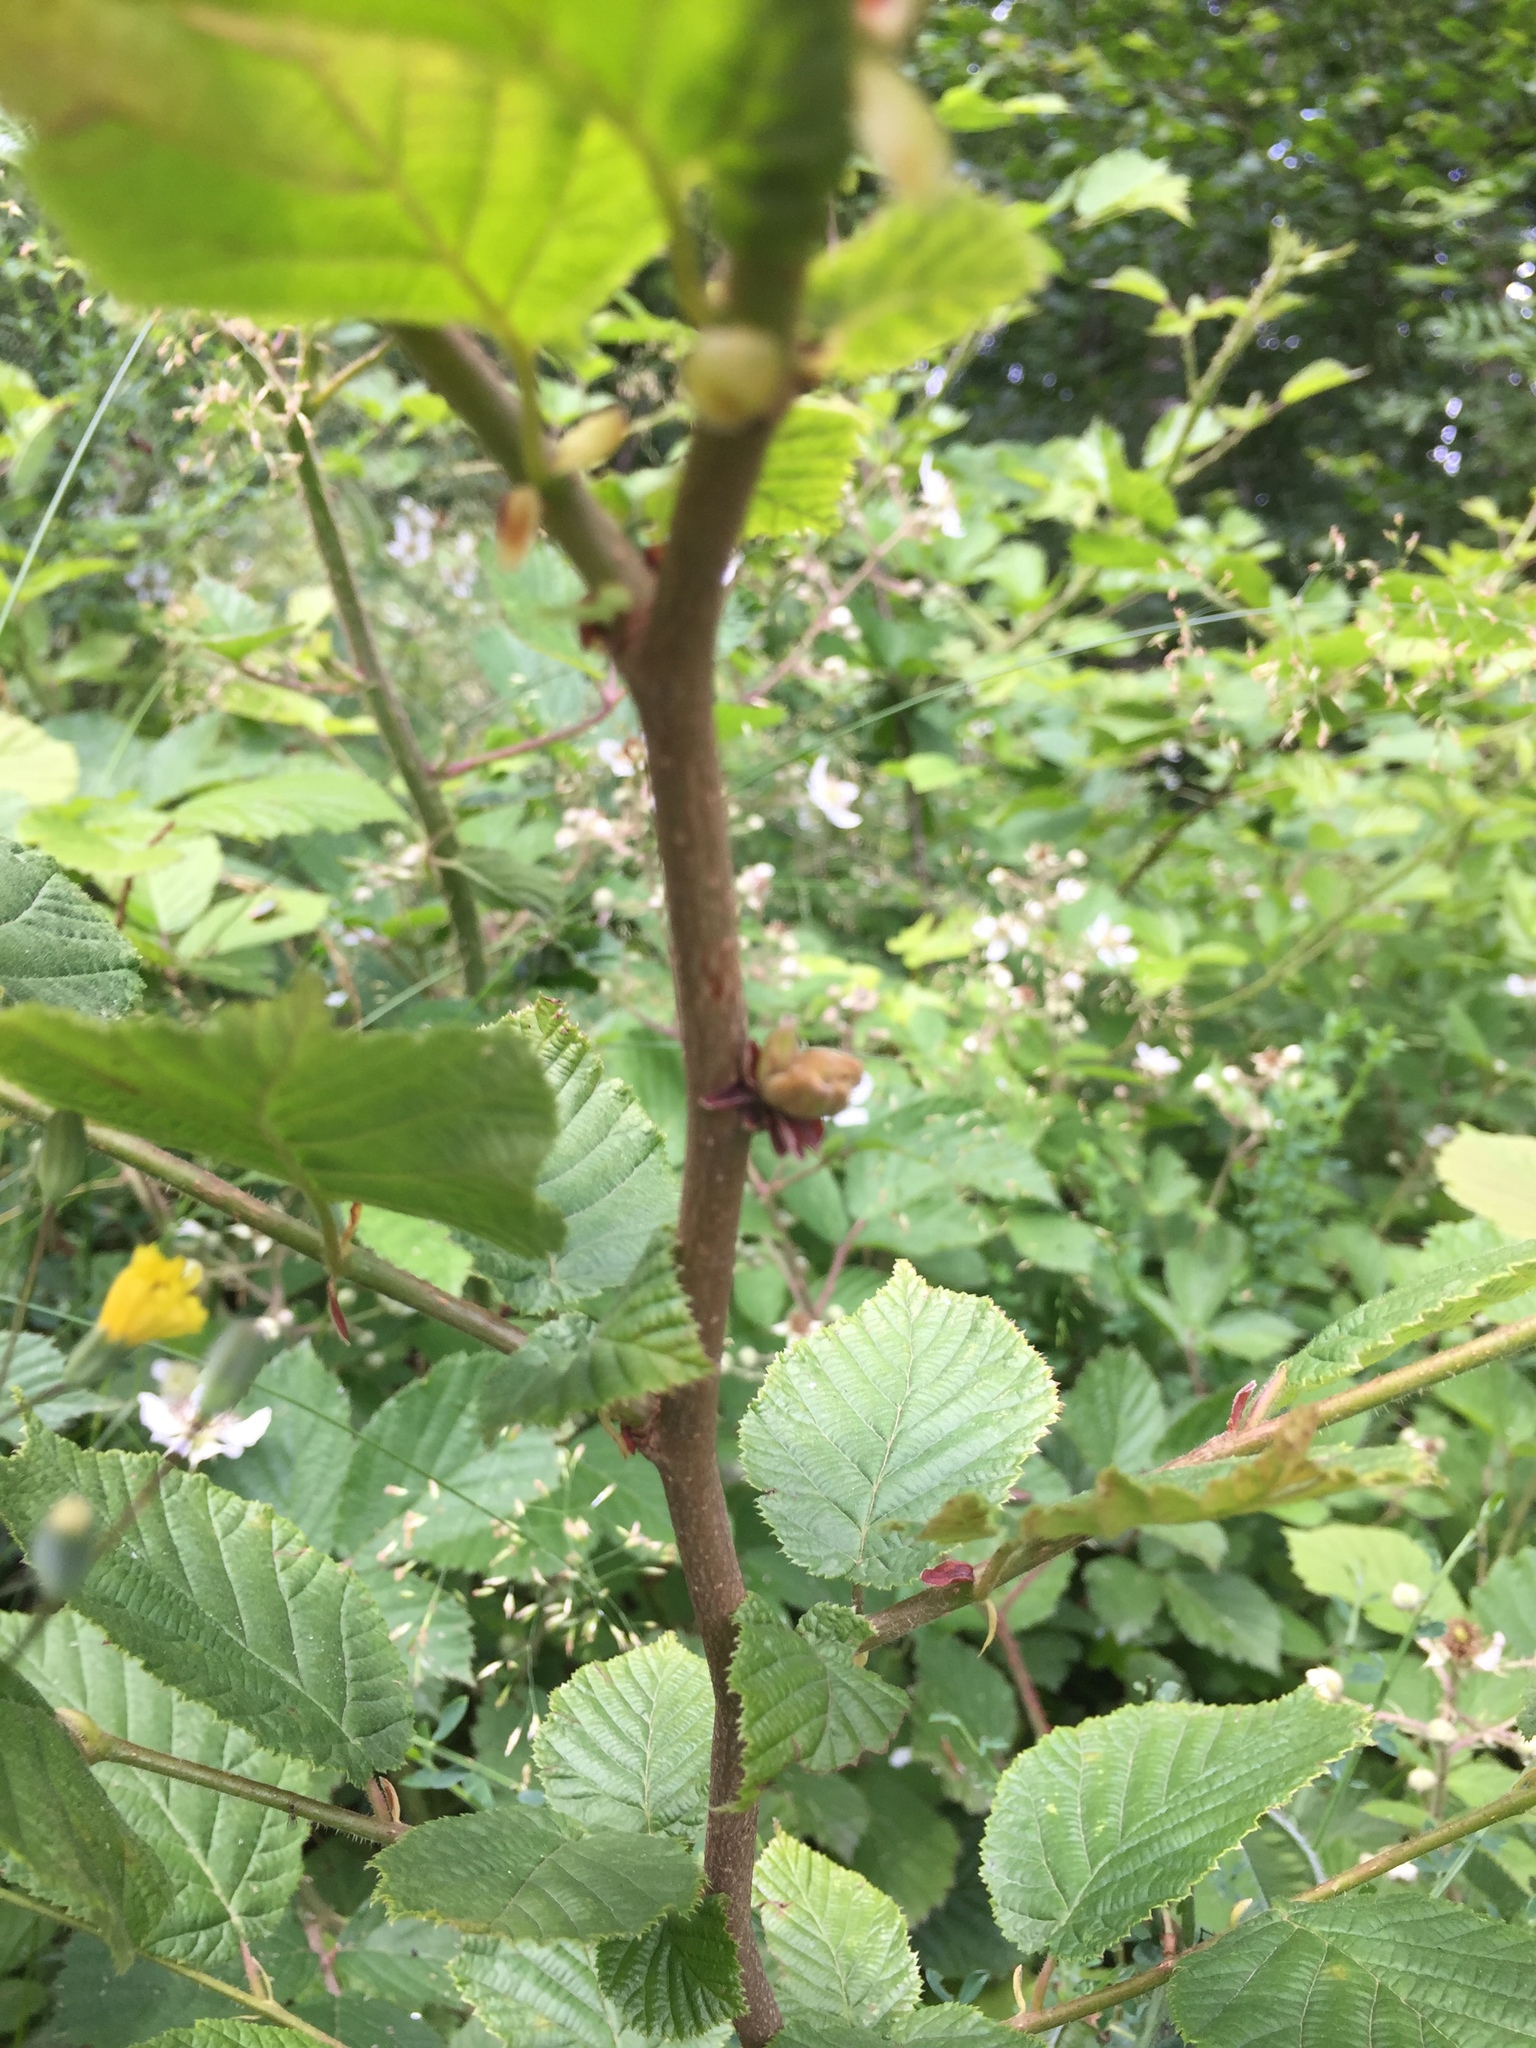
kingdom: Animalia
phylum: Arthropoda
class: Arachnida
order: Trombidiformes
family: Phytoptidae
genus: Phytoptus
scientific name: Phytoptus avellanae
